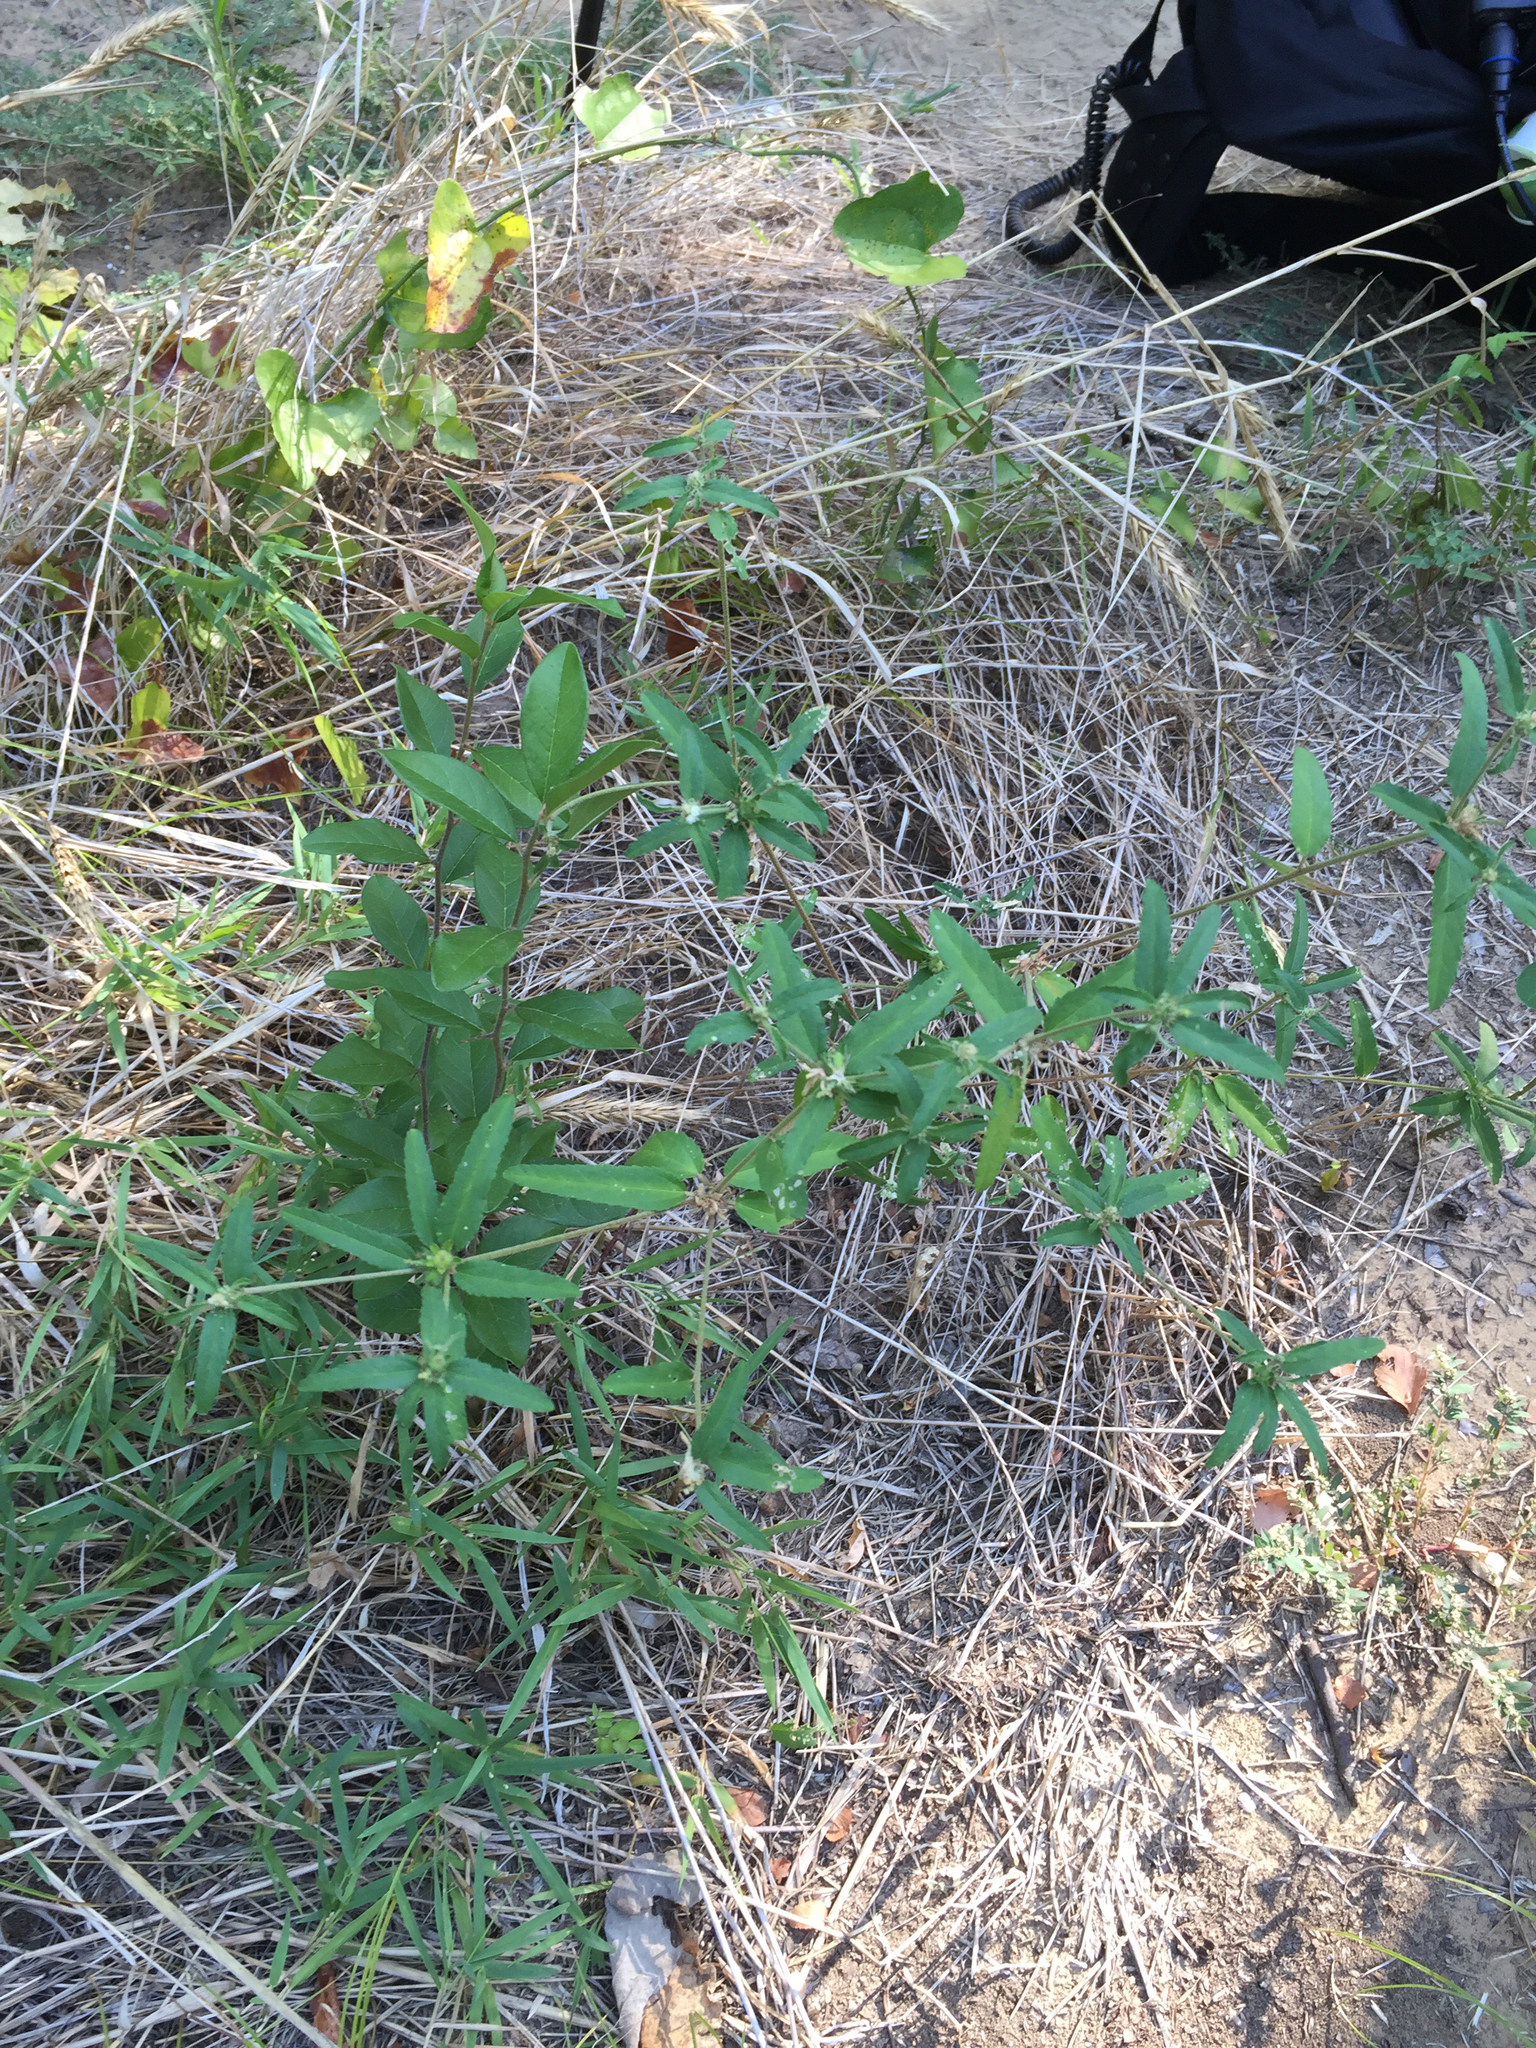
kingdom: Plantae
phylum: Tracheophyta
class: Magnoliopsida
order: Malpighiales
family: Euphorbiaceae
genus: Croton
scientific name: Croton glandulosus
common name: Tropic croton
